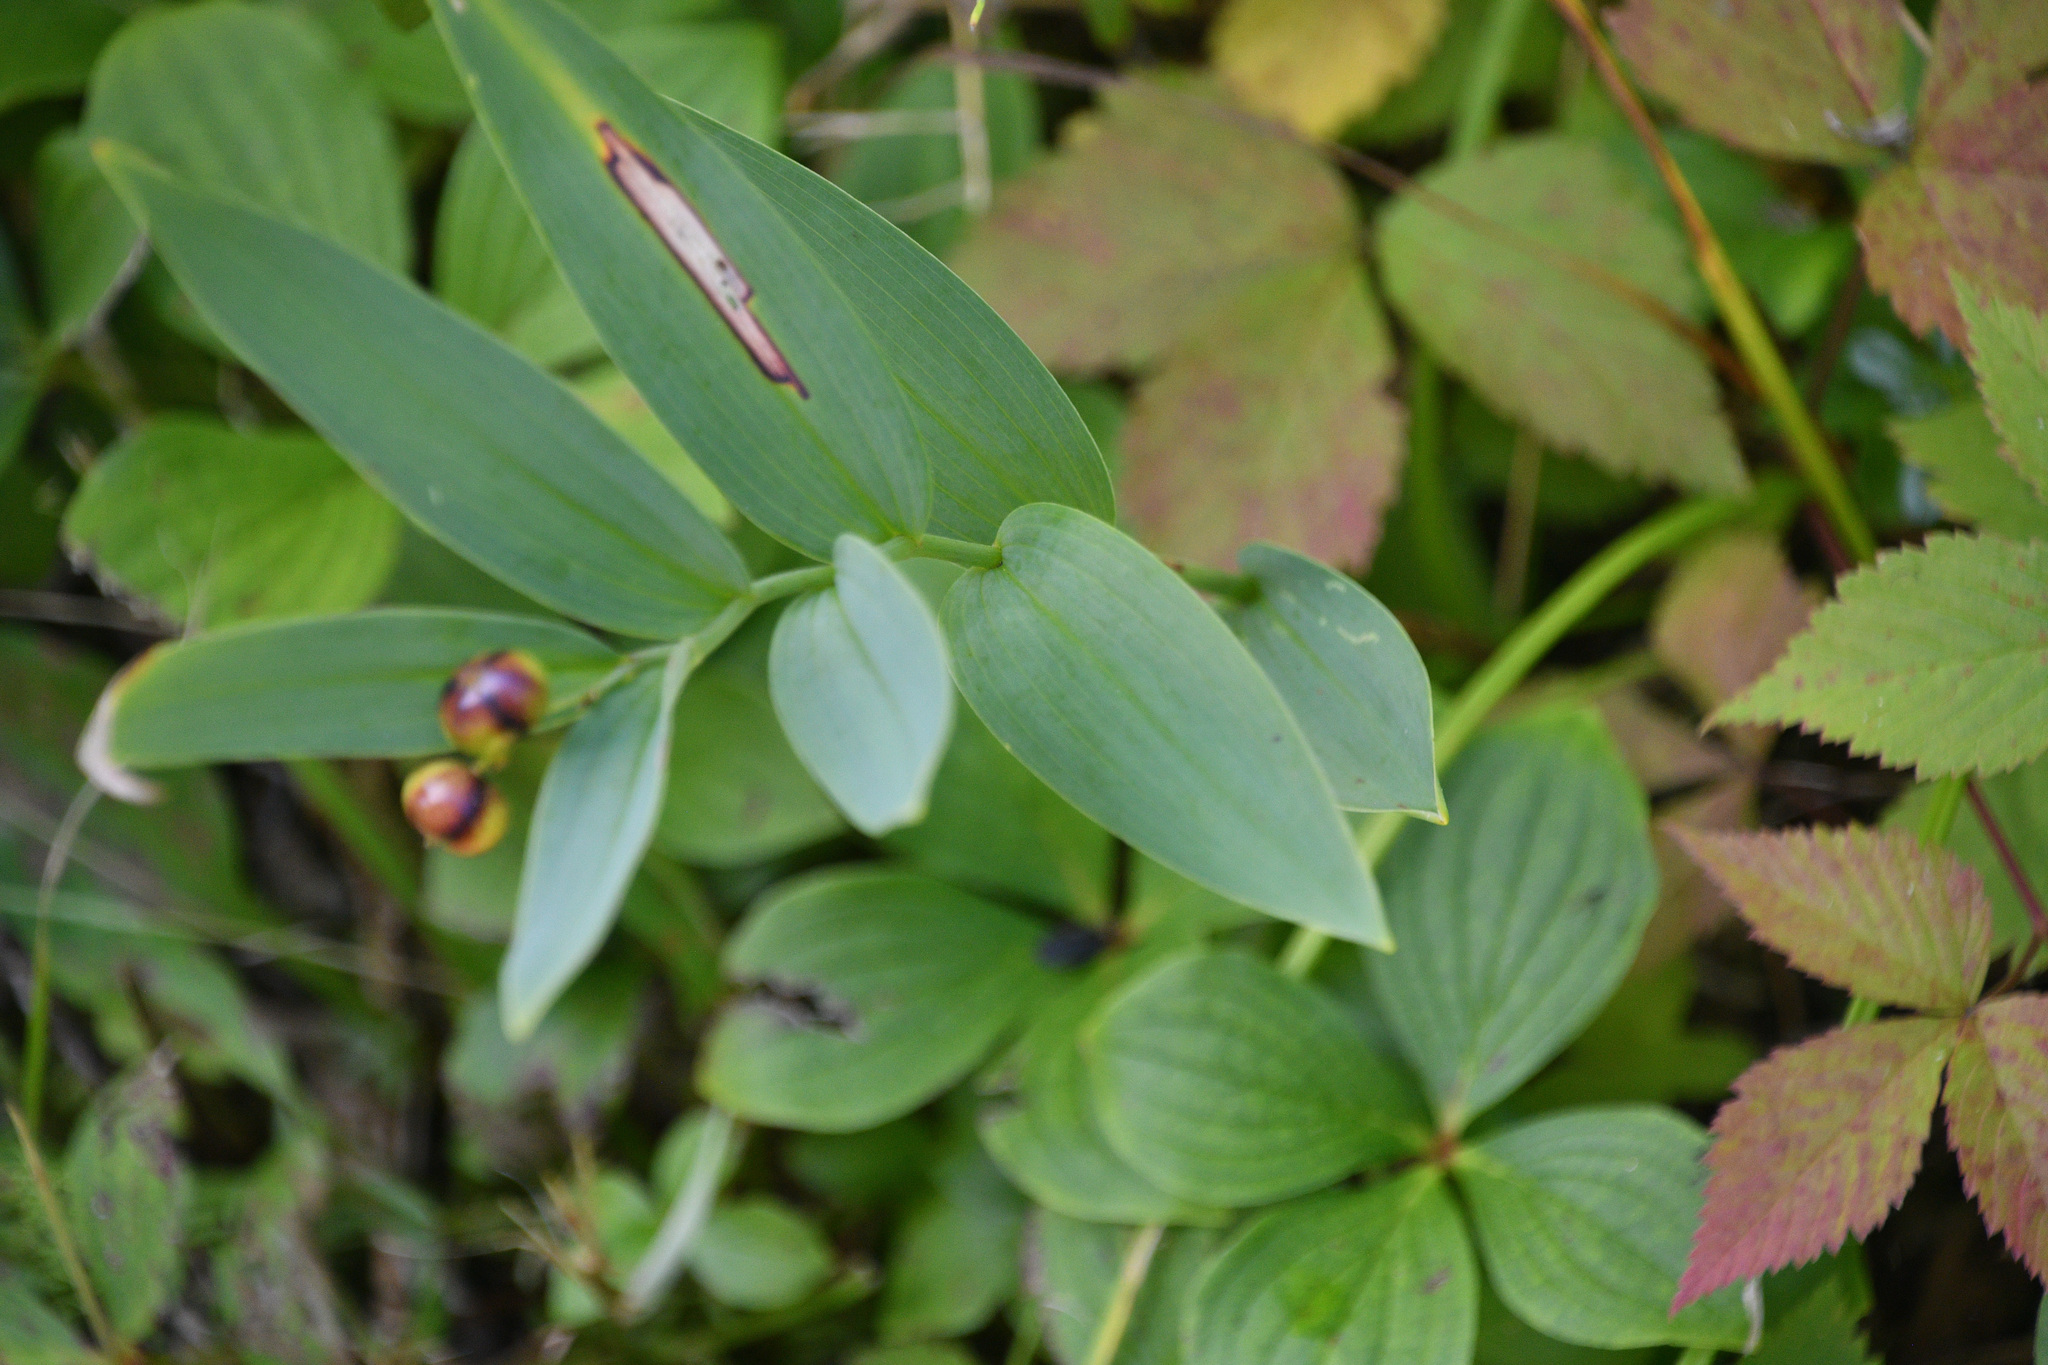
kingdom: Plantae
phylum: Tracheophyta
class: Liliopsida
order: Asparagales
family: Asparagaceae
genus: Maianthemum
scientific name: Maianthemum stellatum
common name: Little false solomon's seal
